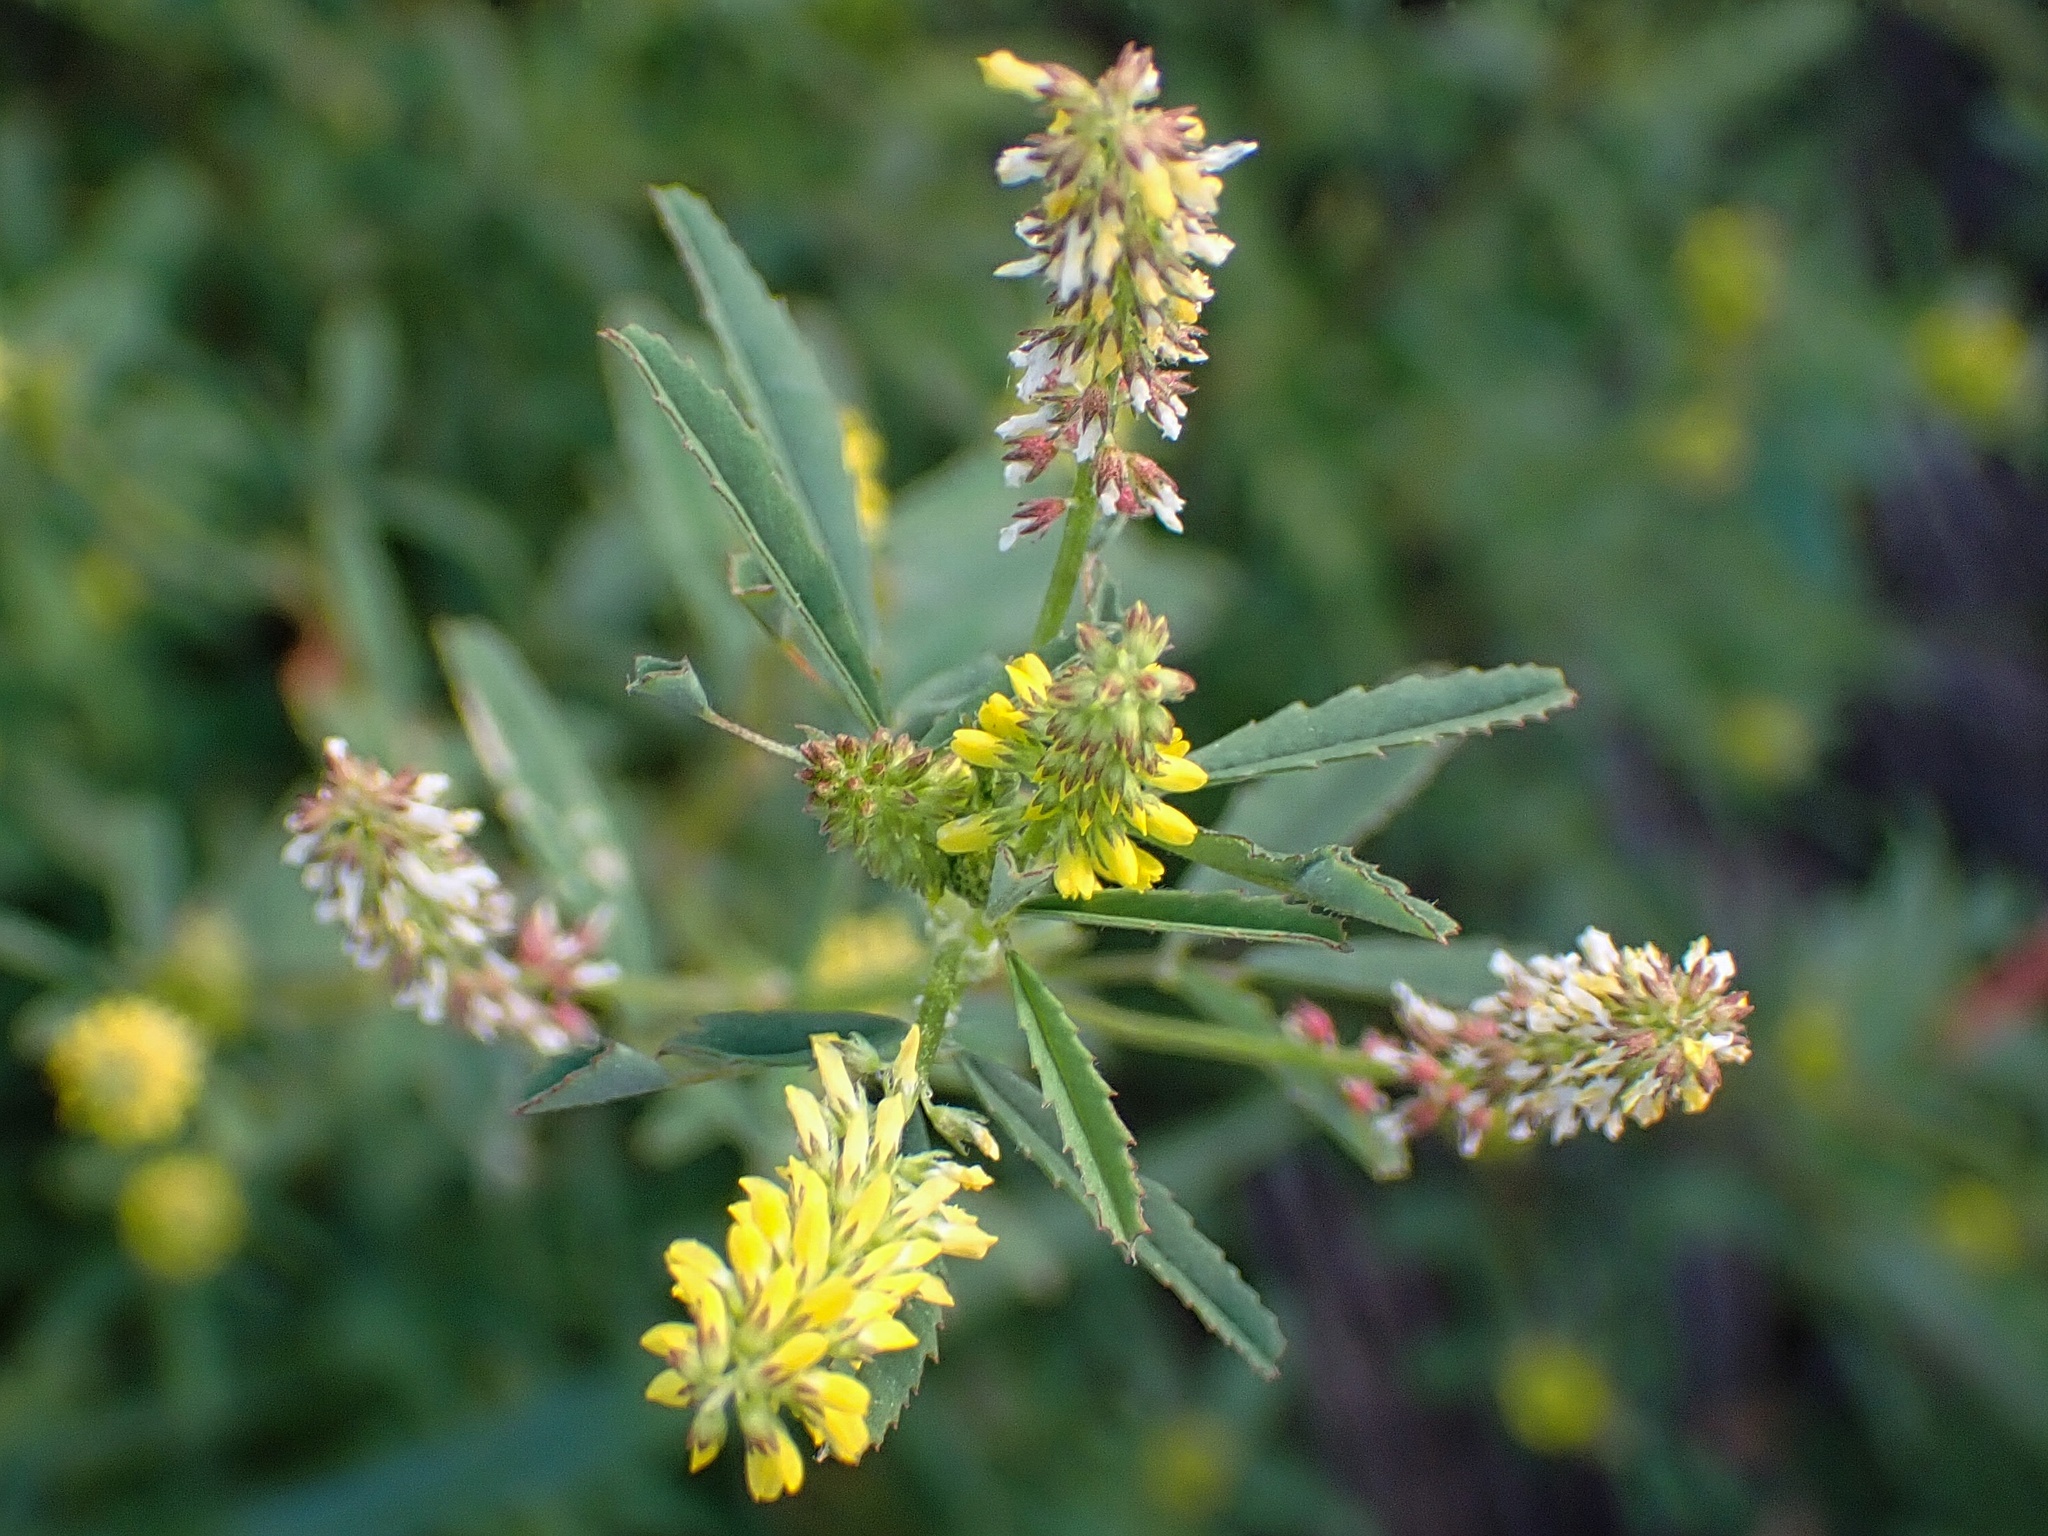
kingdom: Plantae
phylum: Tracheophyta
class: Magnoliopsida
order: Fabales
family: Fabaceae
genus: Melilotus
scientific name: Melilotus indicus
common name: Small melilot
